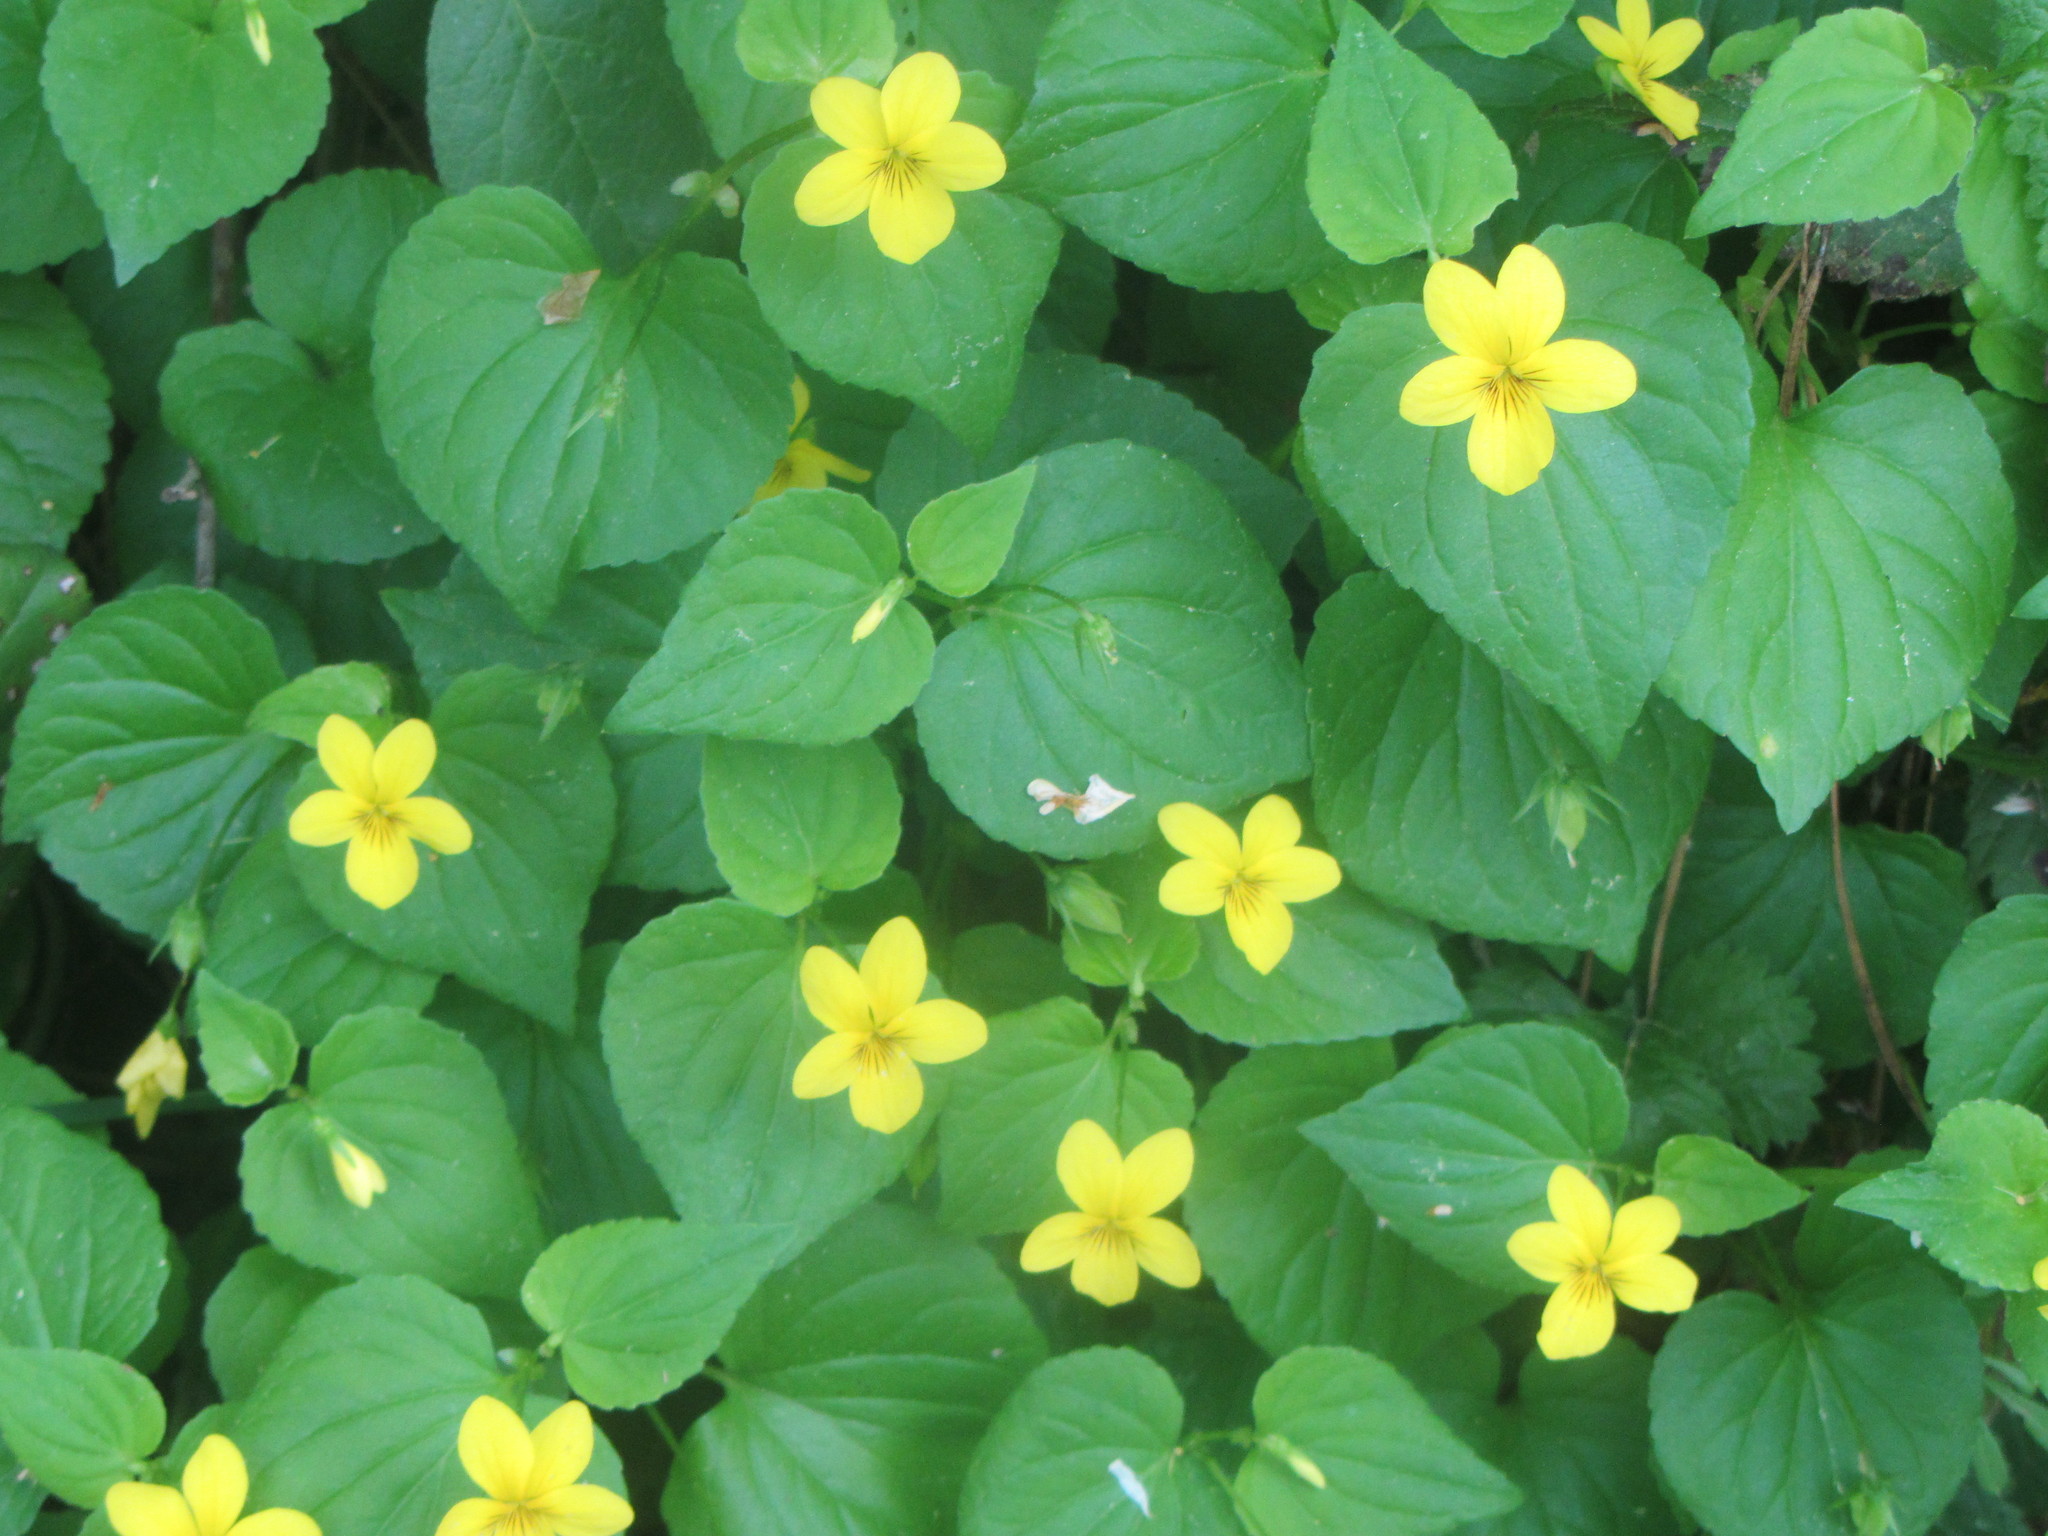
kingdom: Plantae
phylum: Tracheophyta
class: Magnoliopsida
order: Malpighiales
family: Violaceae
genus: Viola
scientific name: Viola glabella
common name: Stream violet
